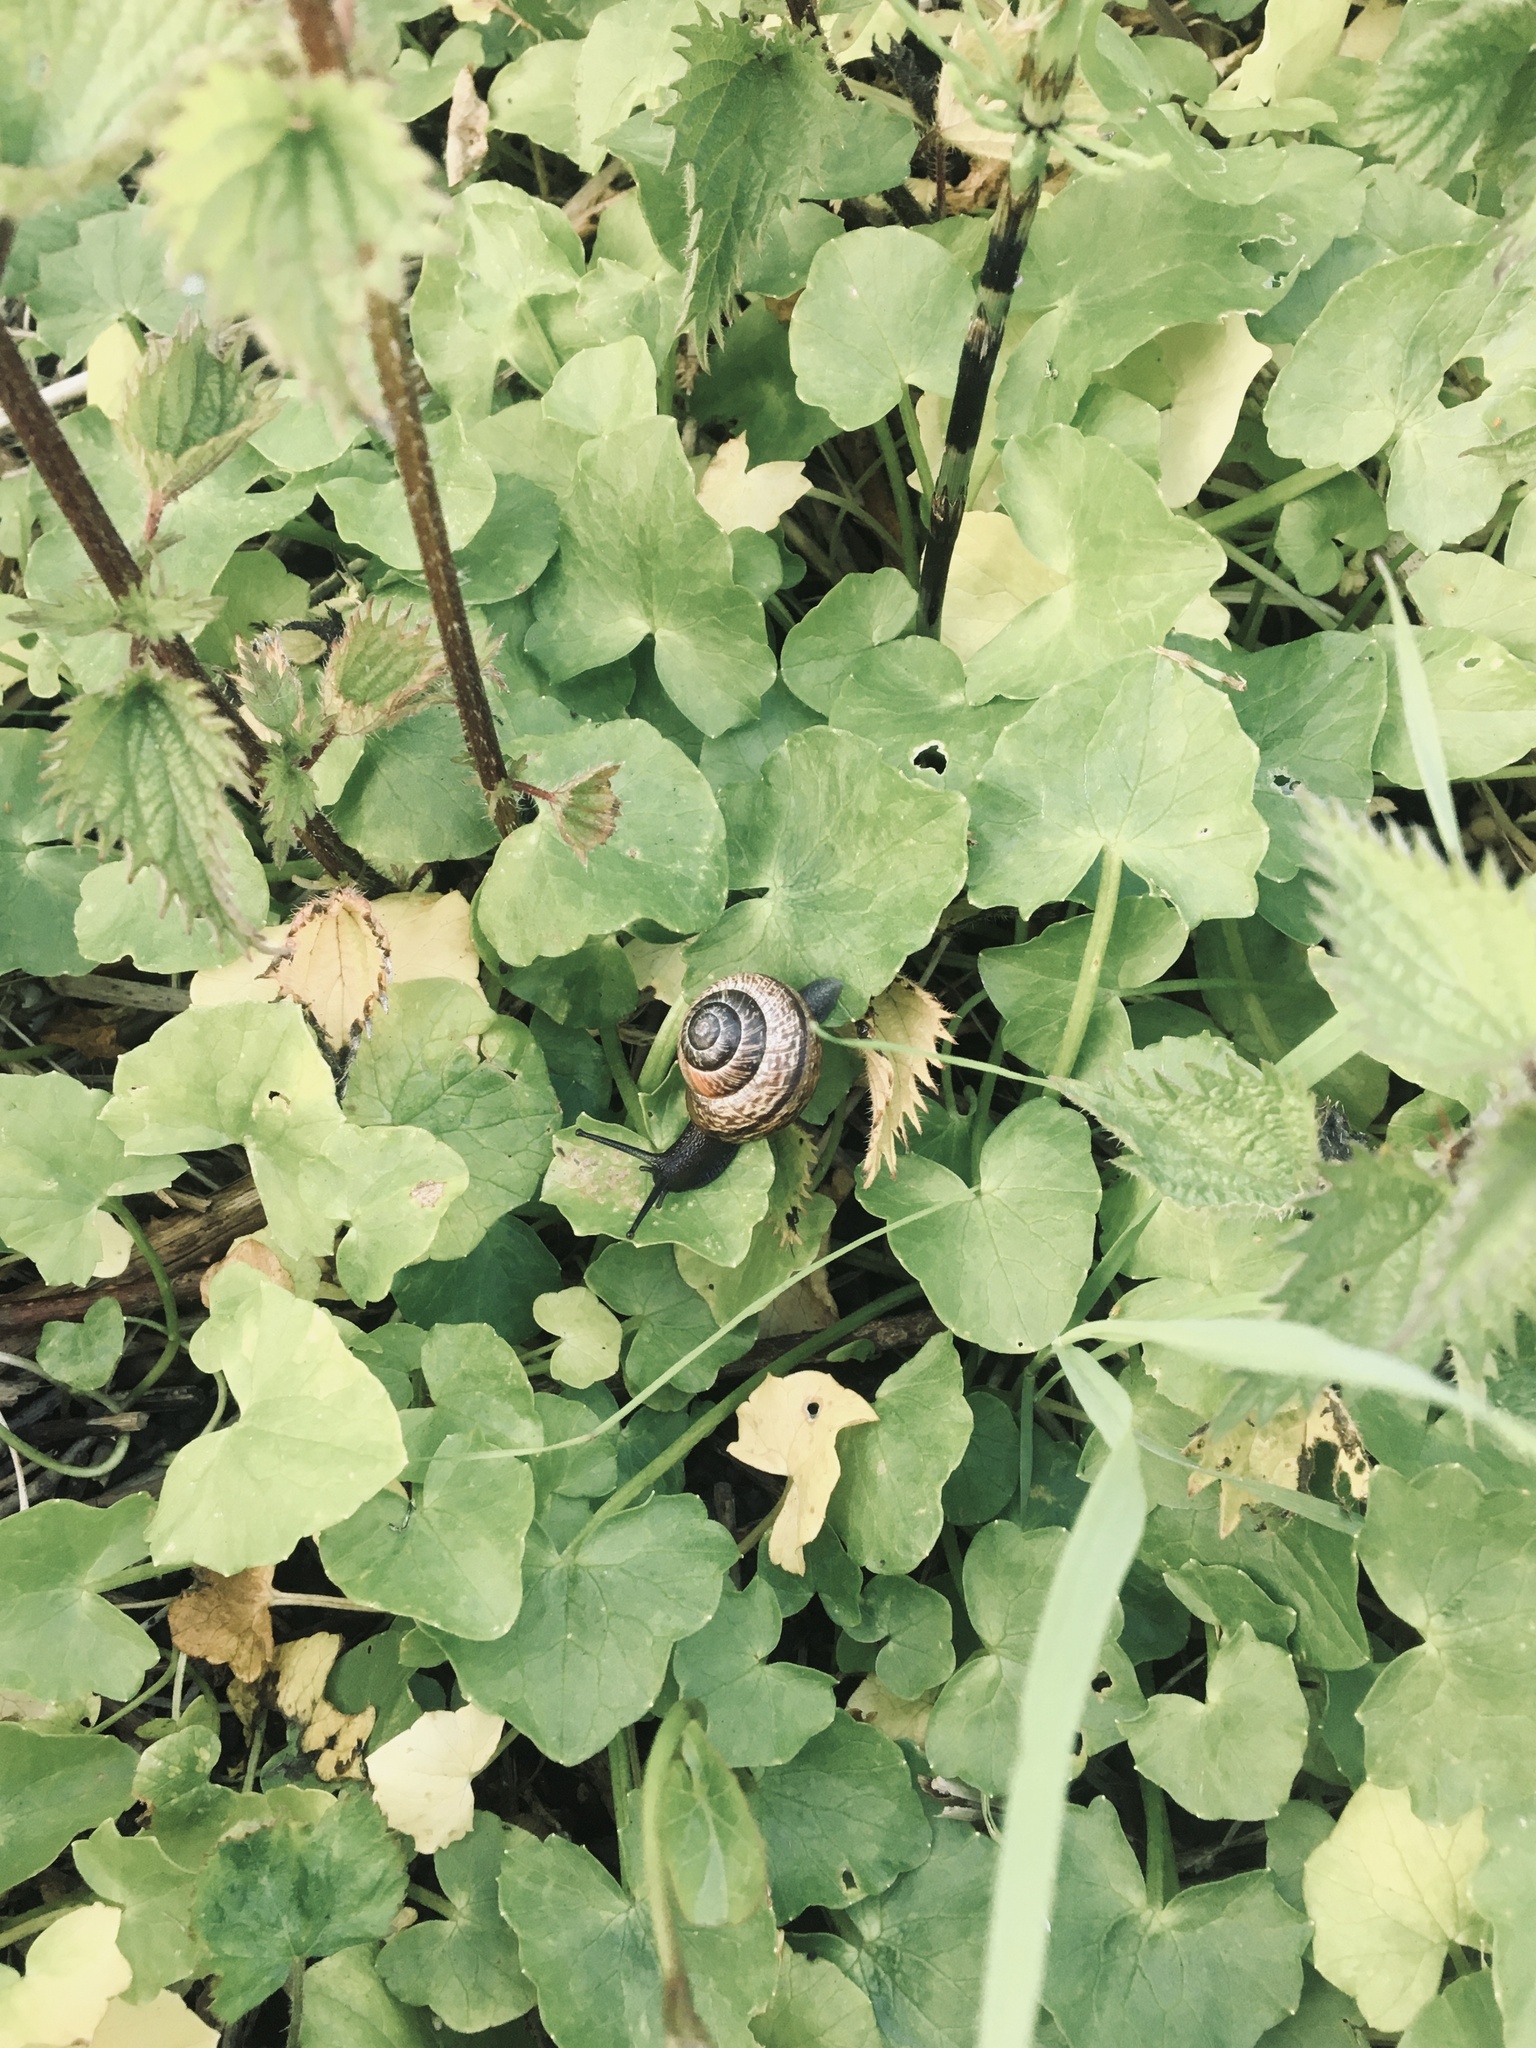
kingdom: Animalia
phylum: Mollusca
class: Gastropoda
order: Stylommatophora
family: Helicidae
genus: Arianta
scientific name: Arianta arbustorum
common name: Copse snail
